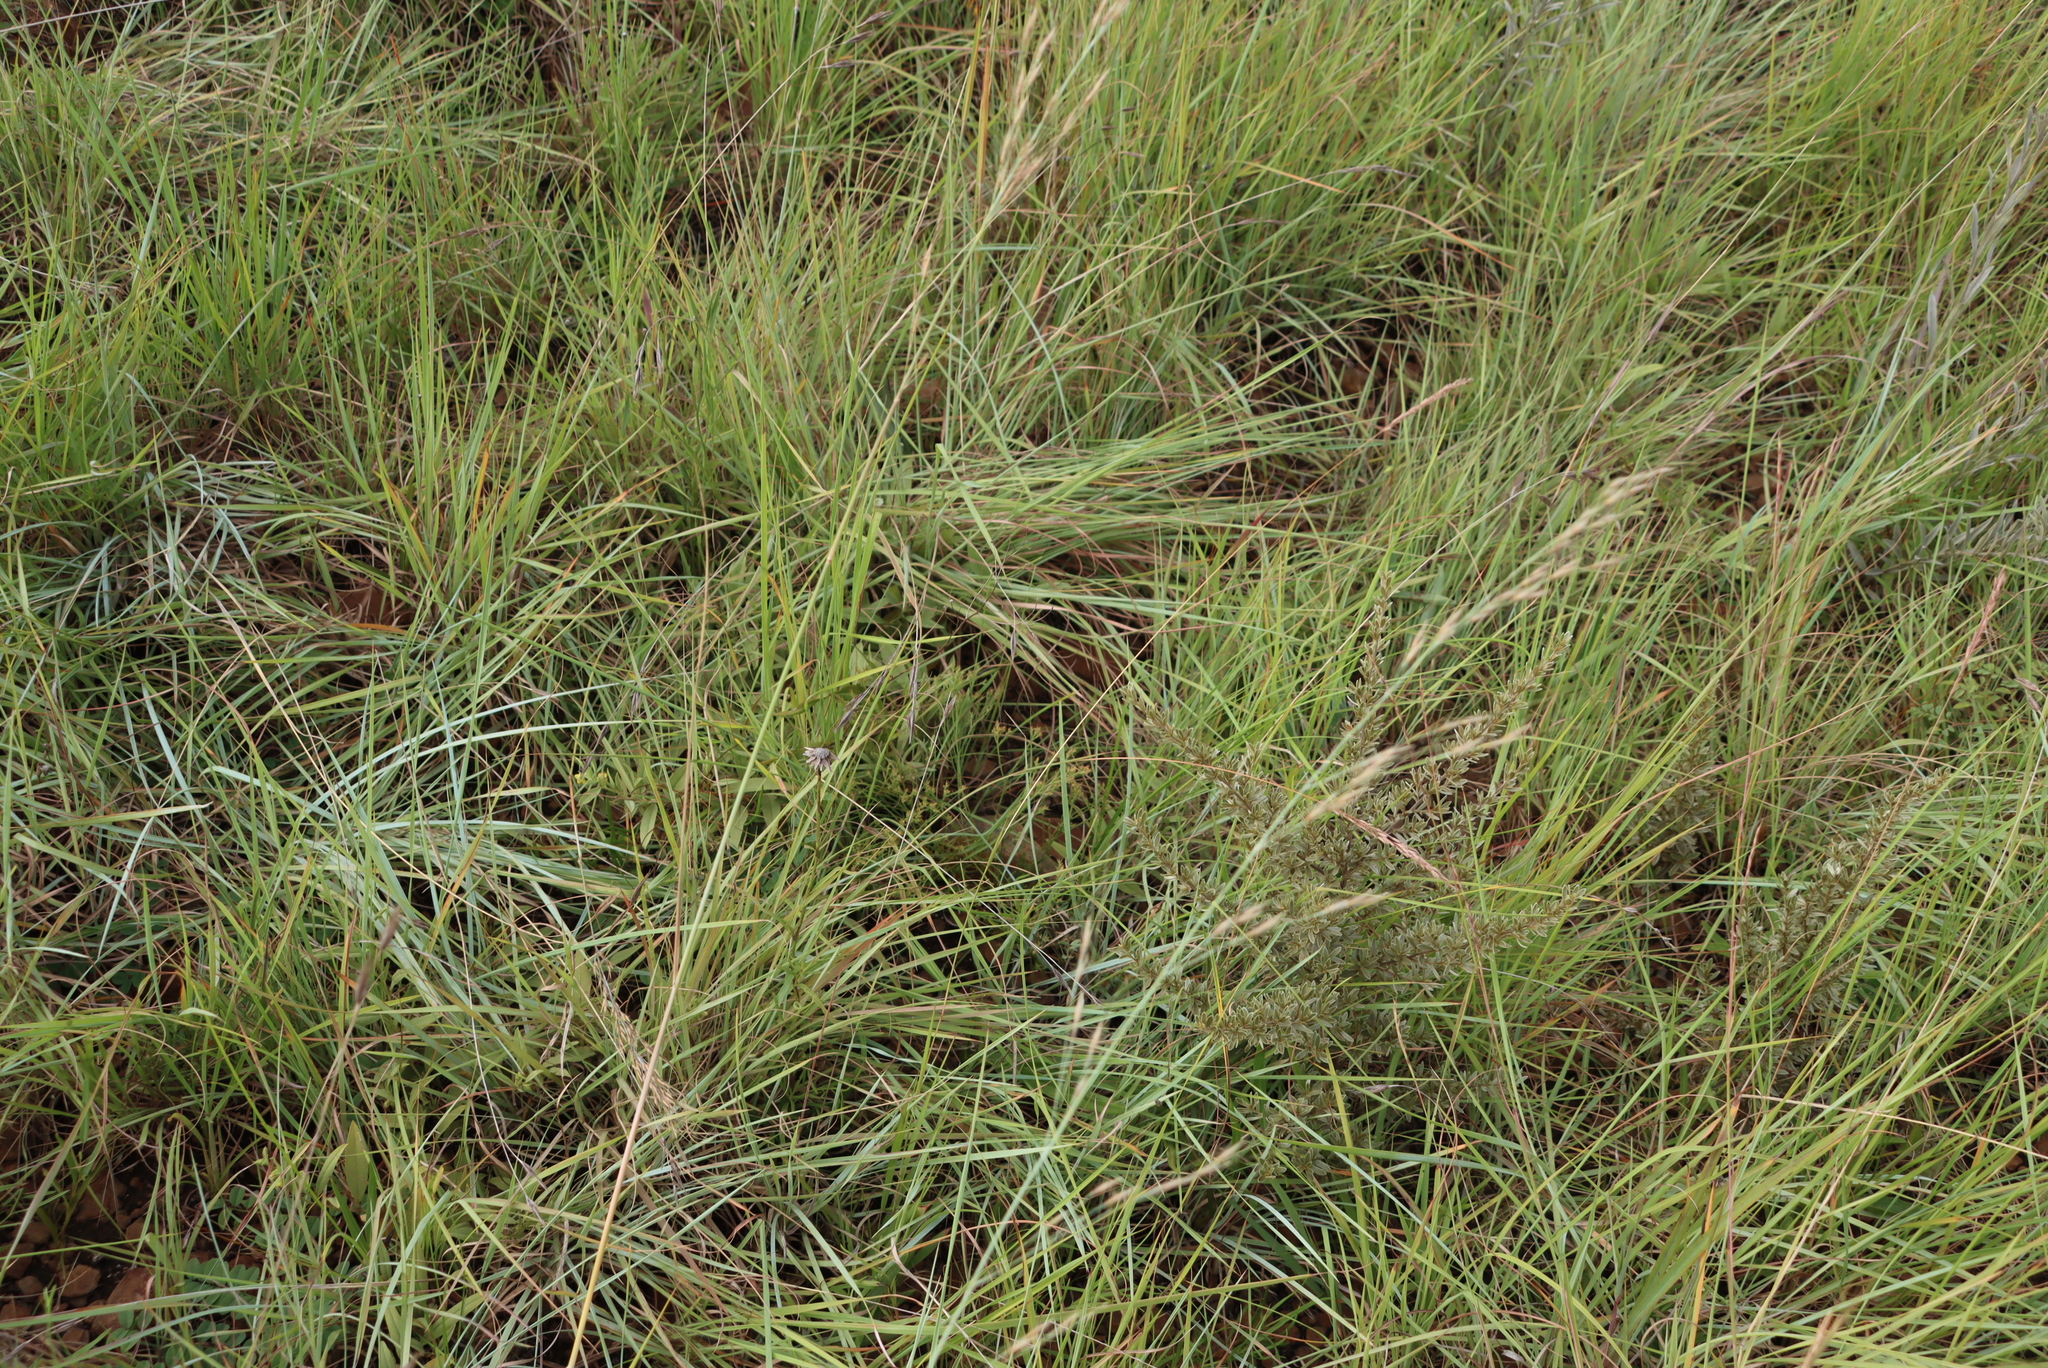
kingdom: Plantae
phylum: Tracheophyta
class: Magnoliopsida
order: Santalales
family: Thesiaceae
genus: Thesium
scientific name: Thesium jeaniae
